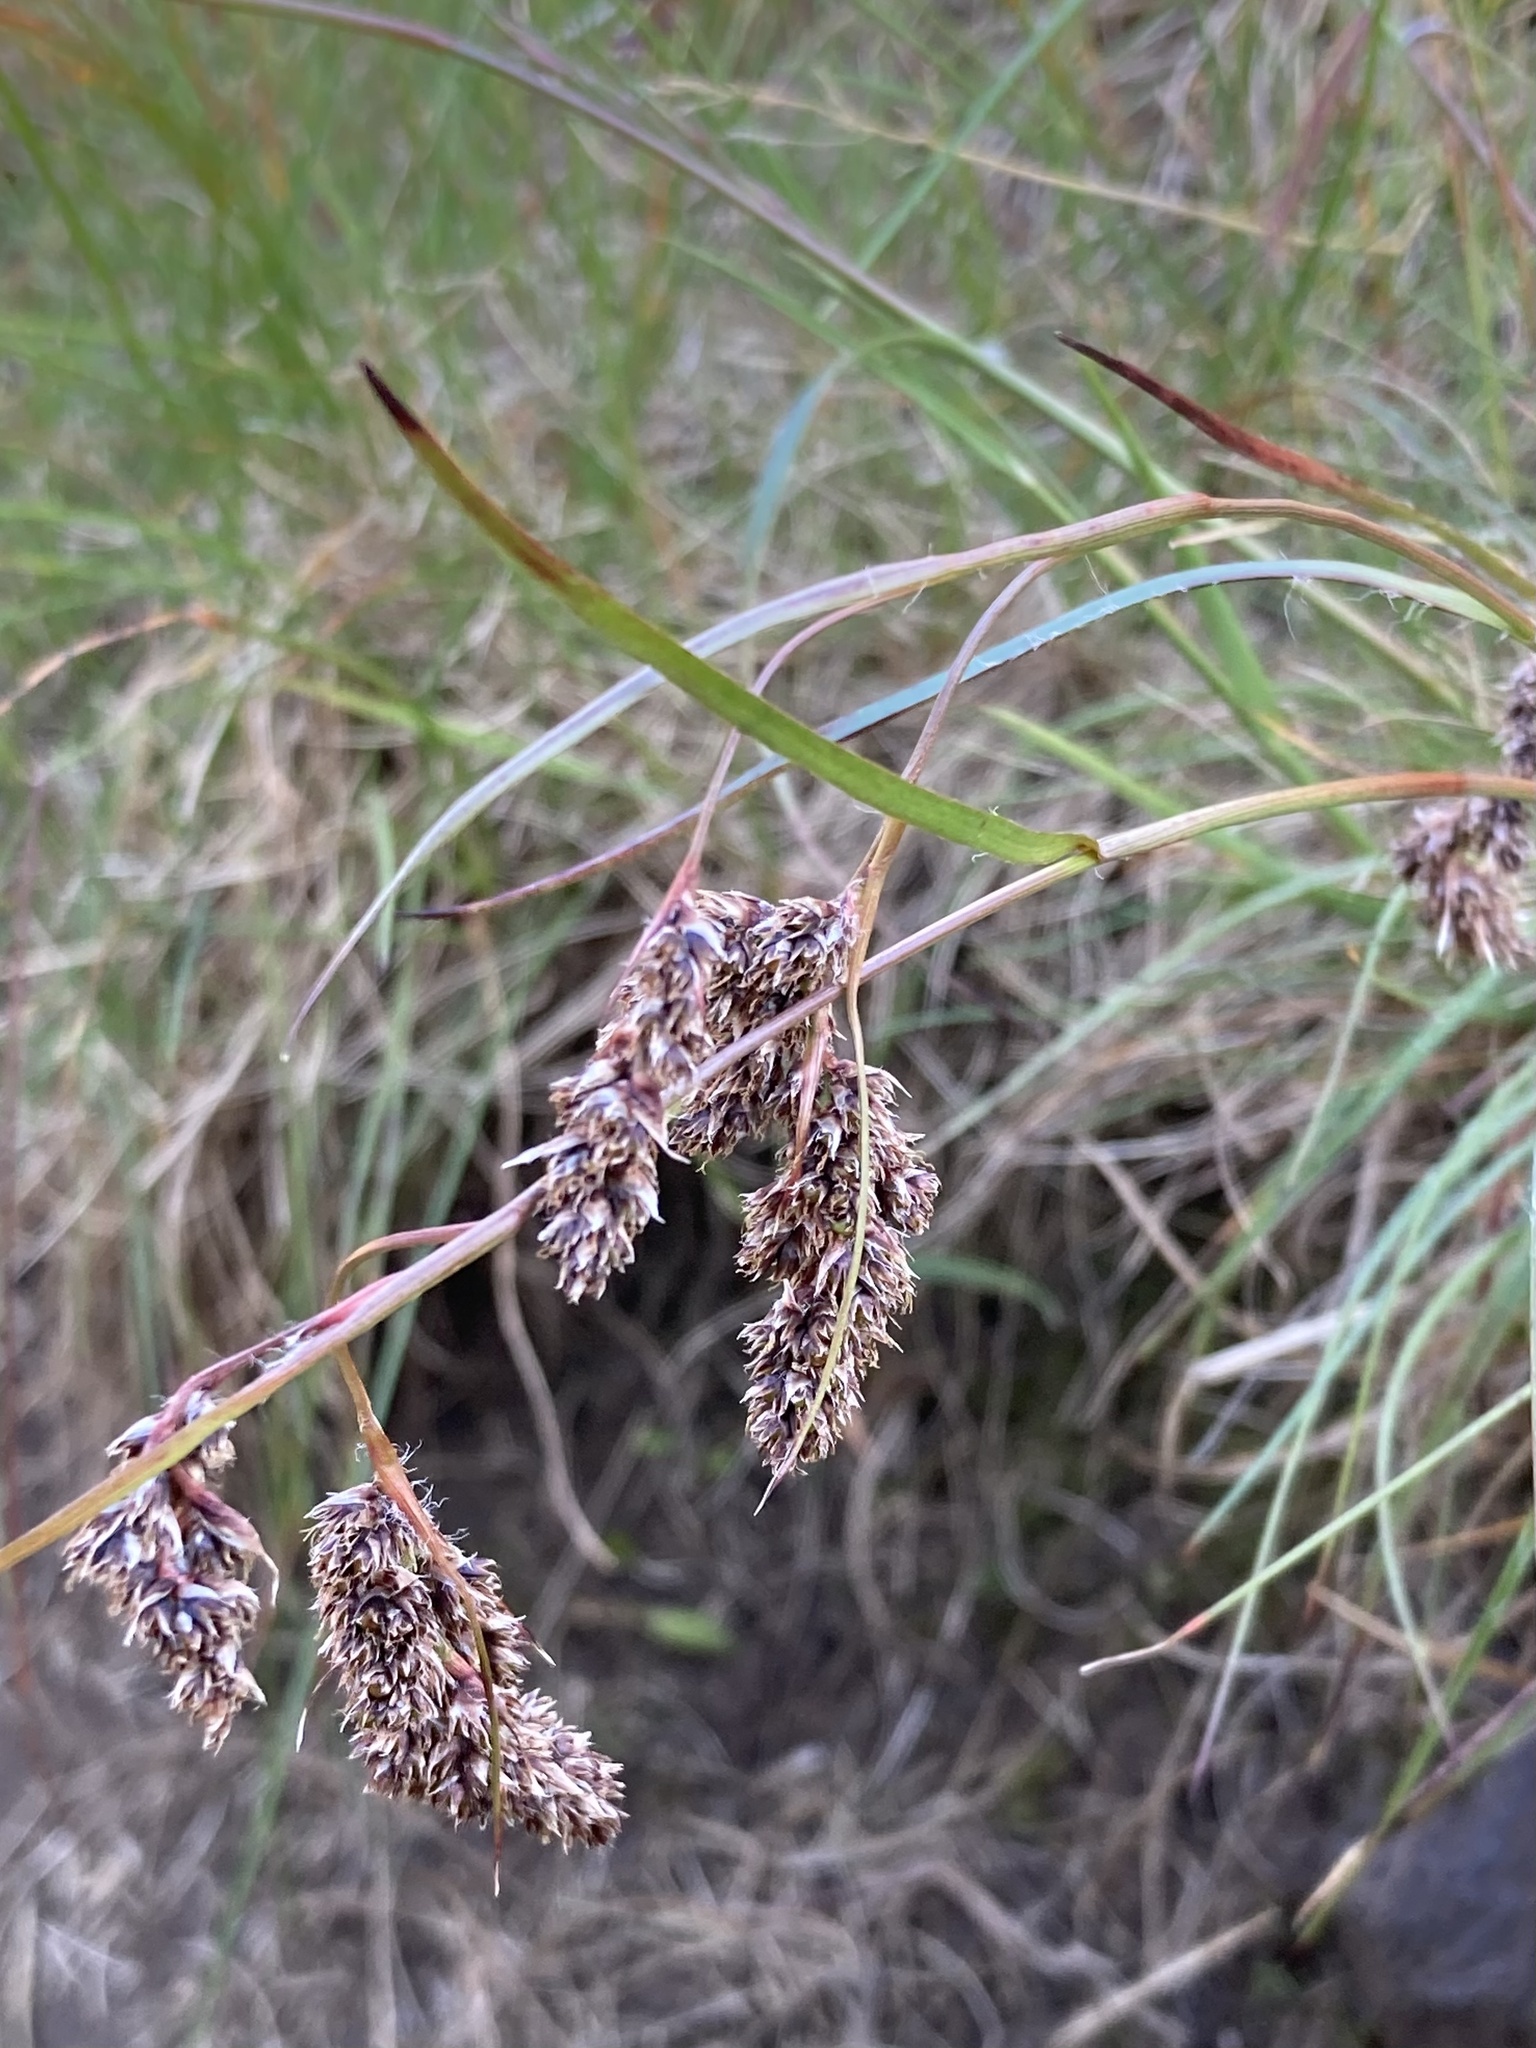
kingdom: Plantae
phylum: Tracheophyta
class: Liliopsida
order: Poales
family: Juncaceae
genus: Luzula
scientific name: Luzula spicata
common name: Spiked wood-rush
